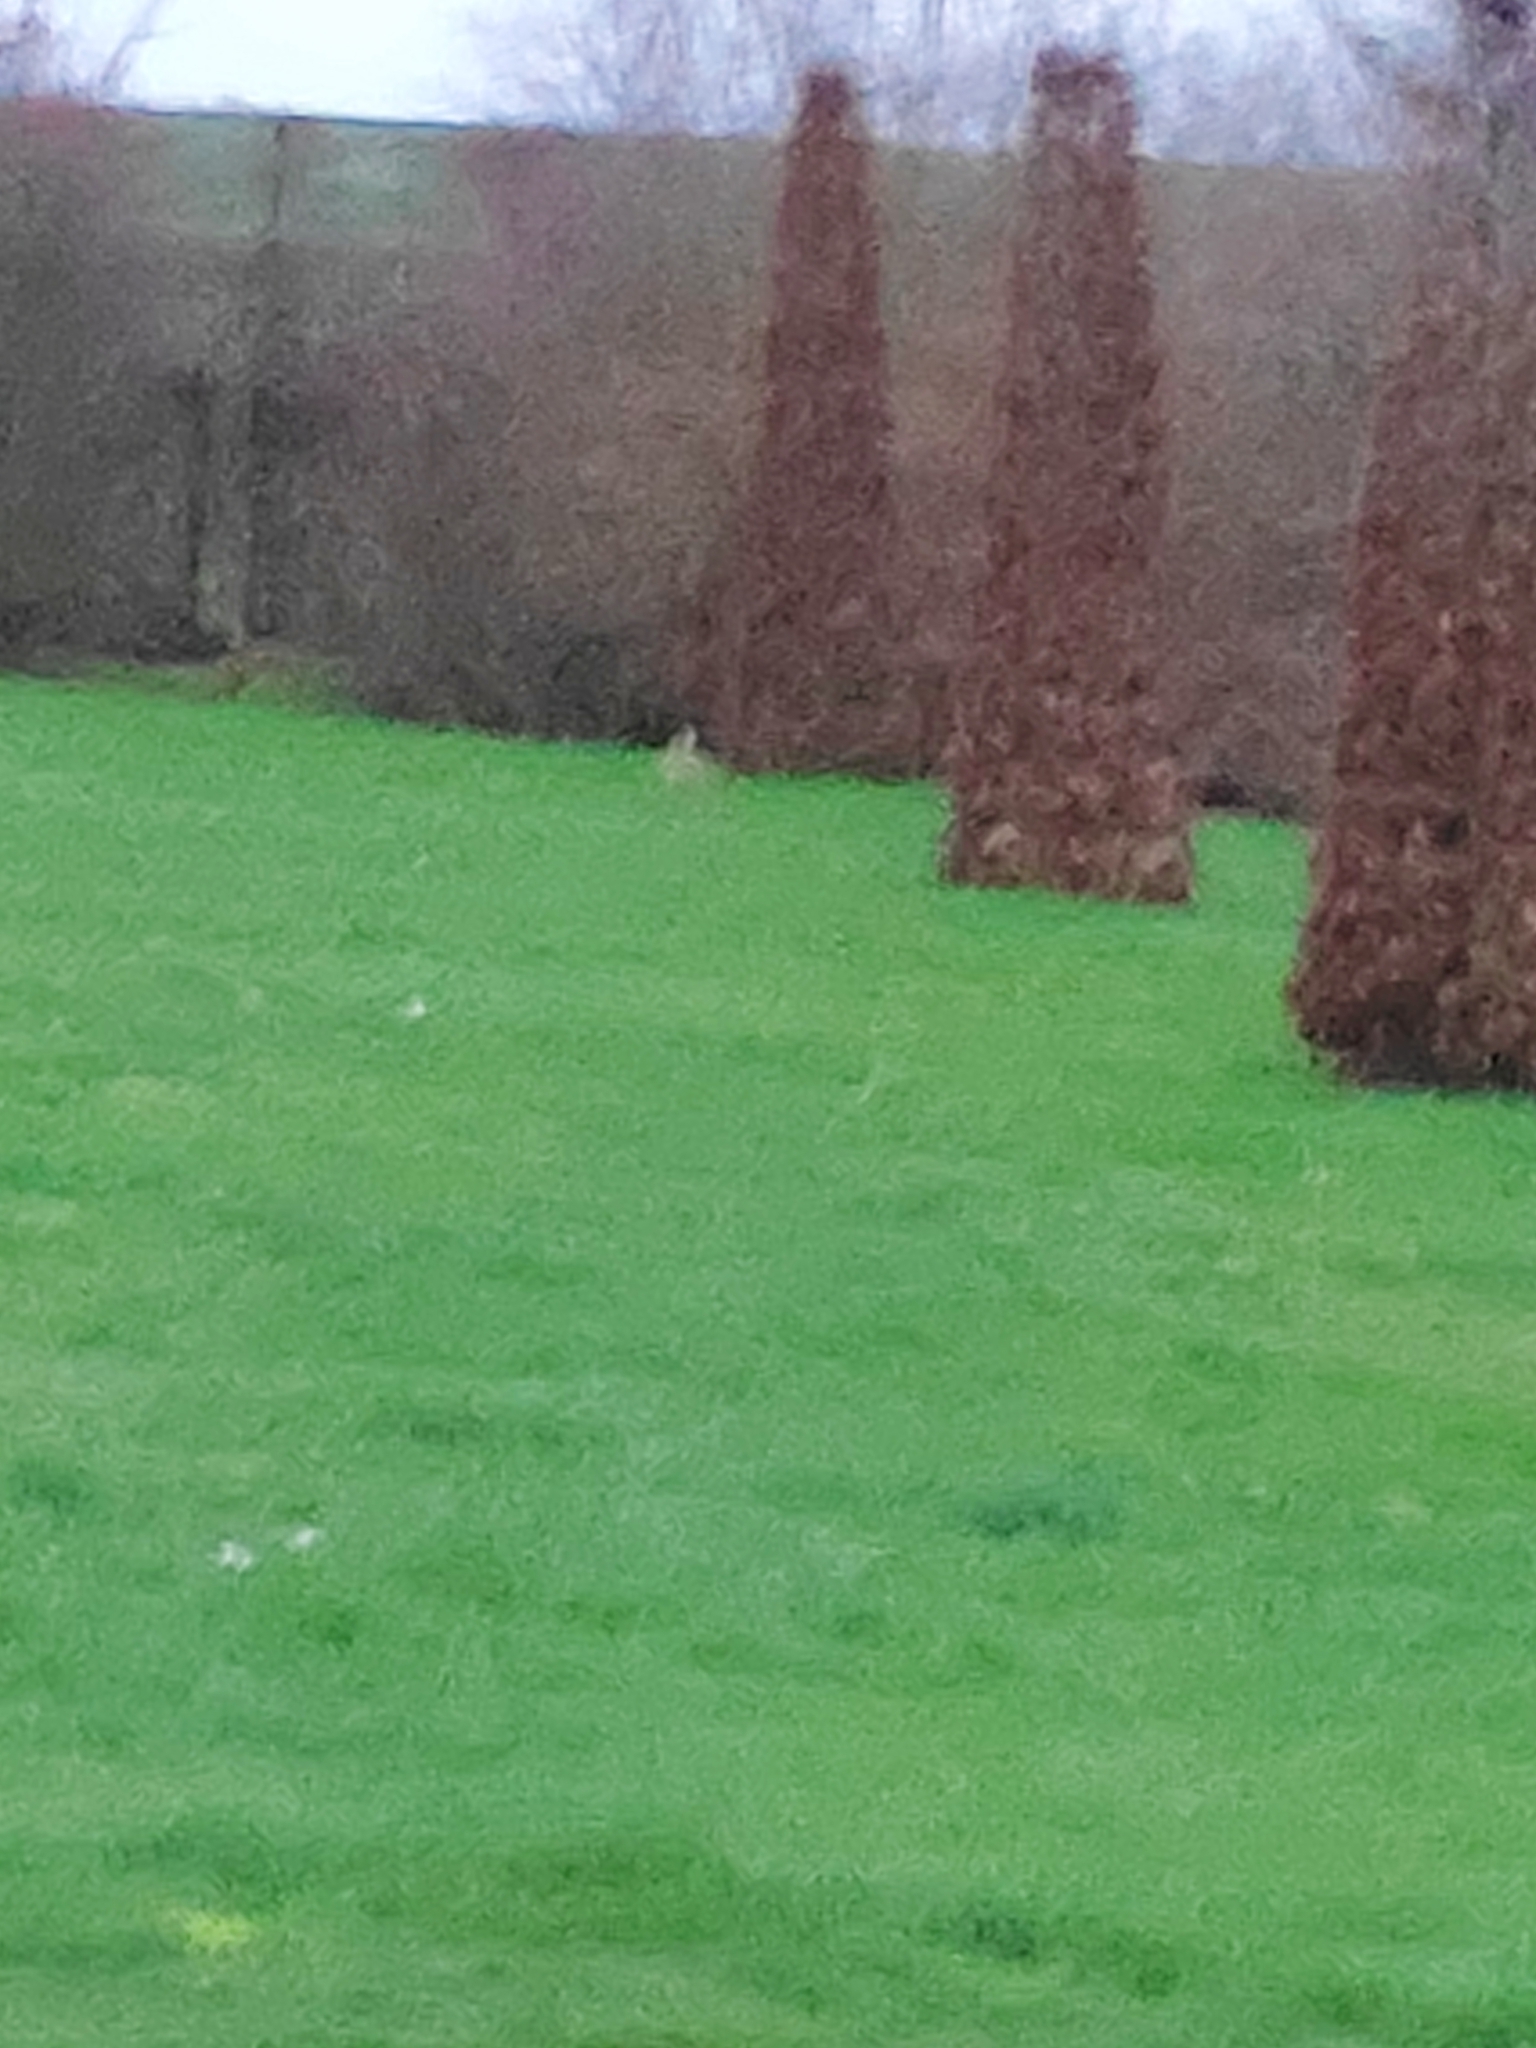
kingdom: Animalia
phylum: Chordata
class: Mammalia
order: Lagomorpha
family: Leporidae
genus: Lepus
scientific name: Lepus europaeus
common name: European hare
